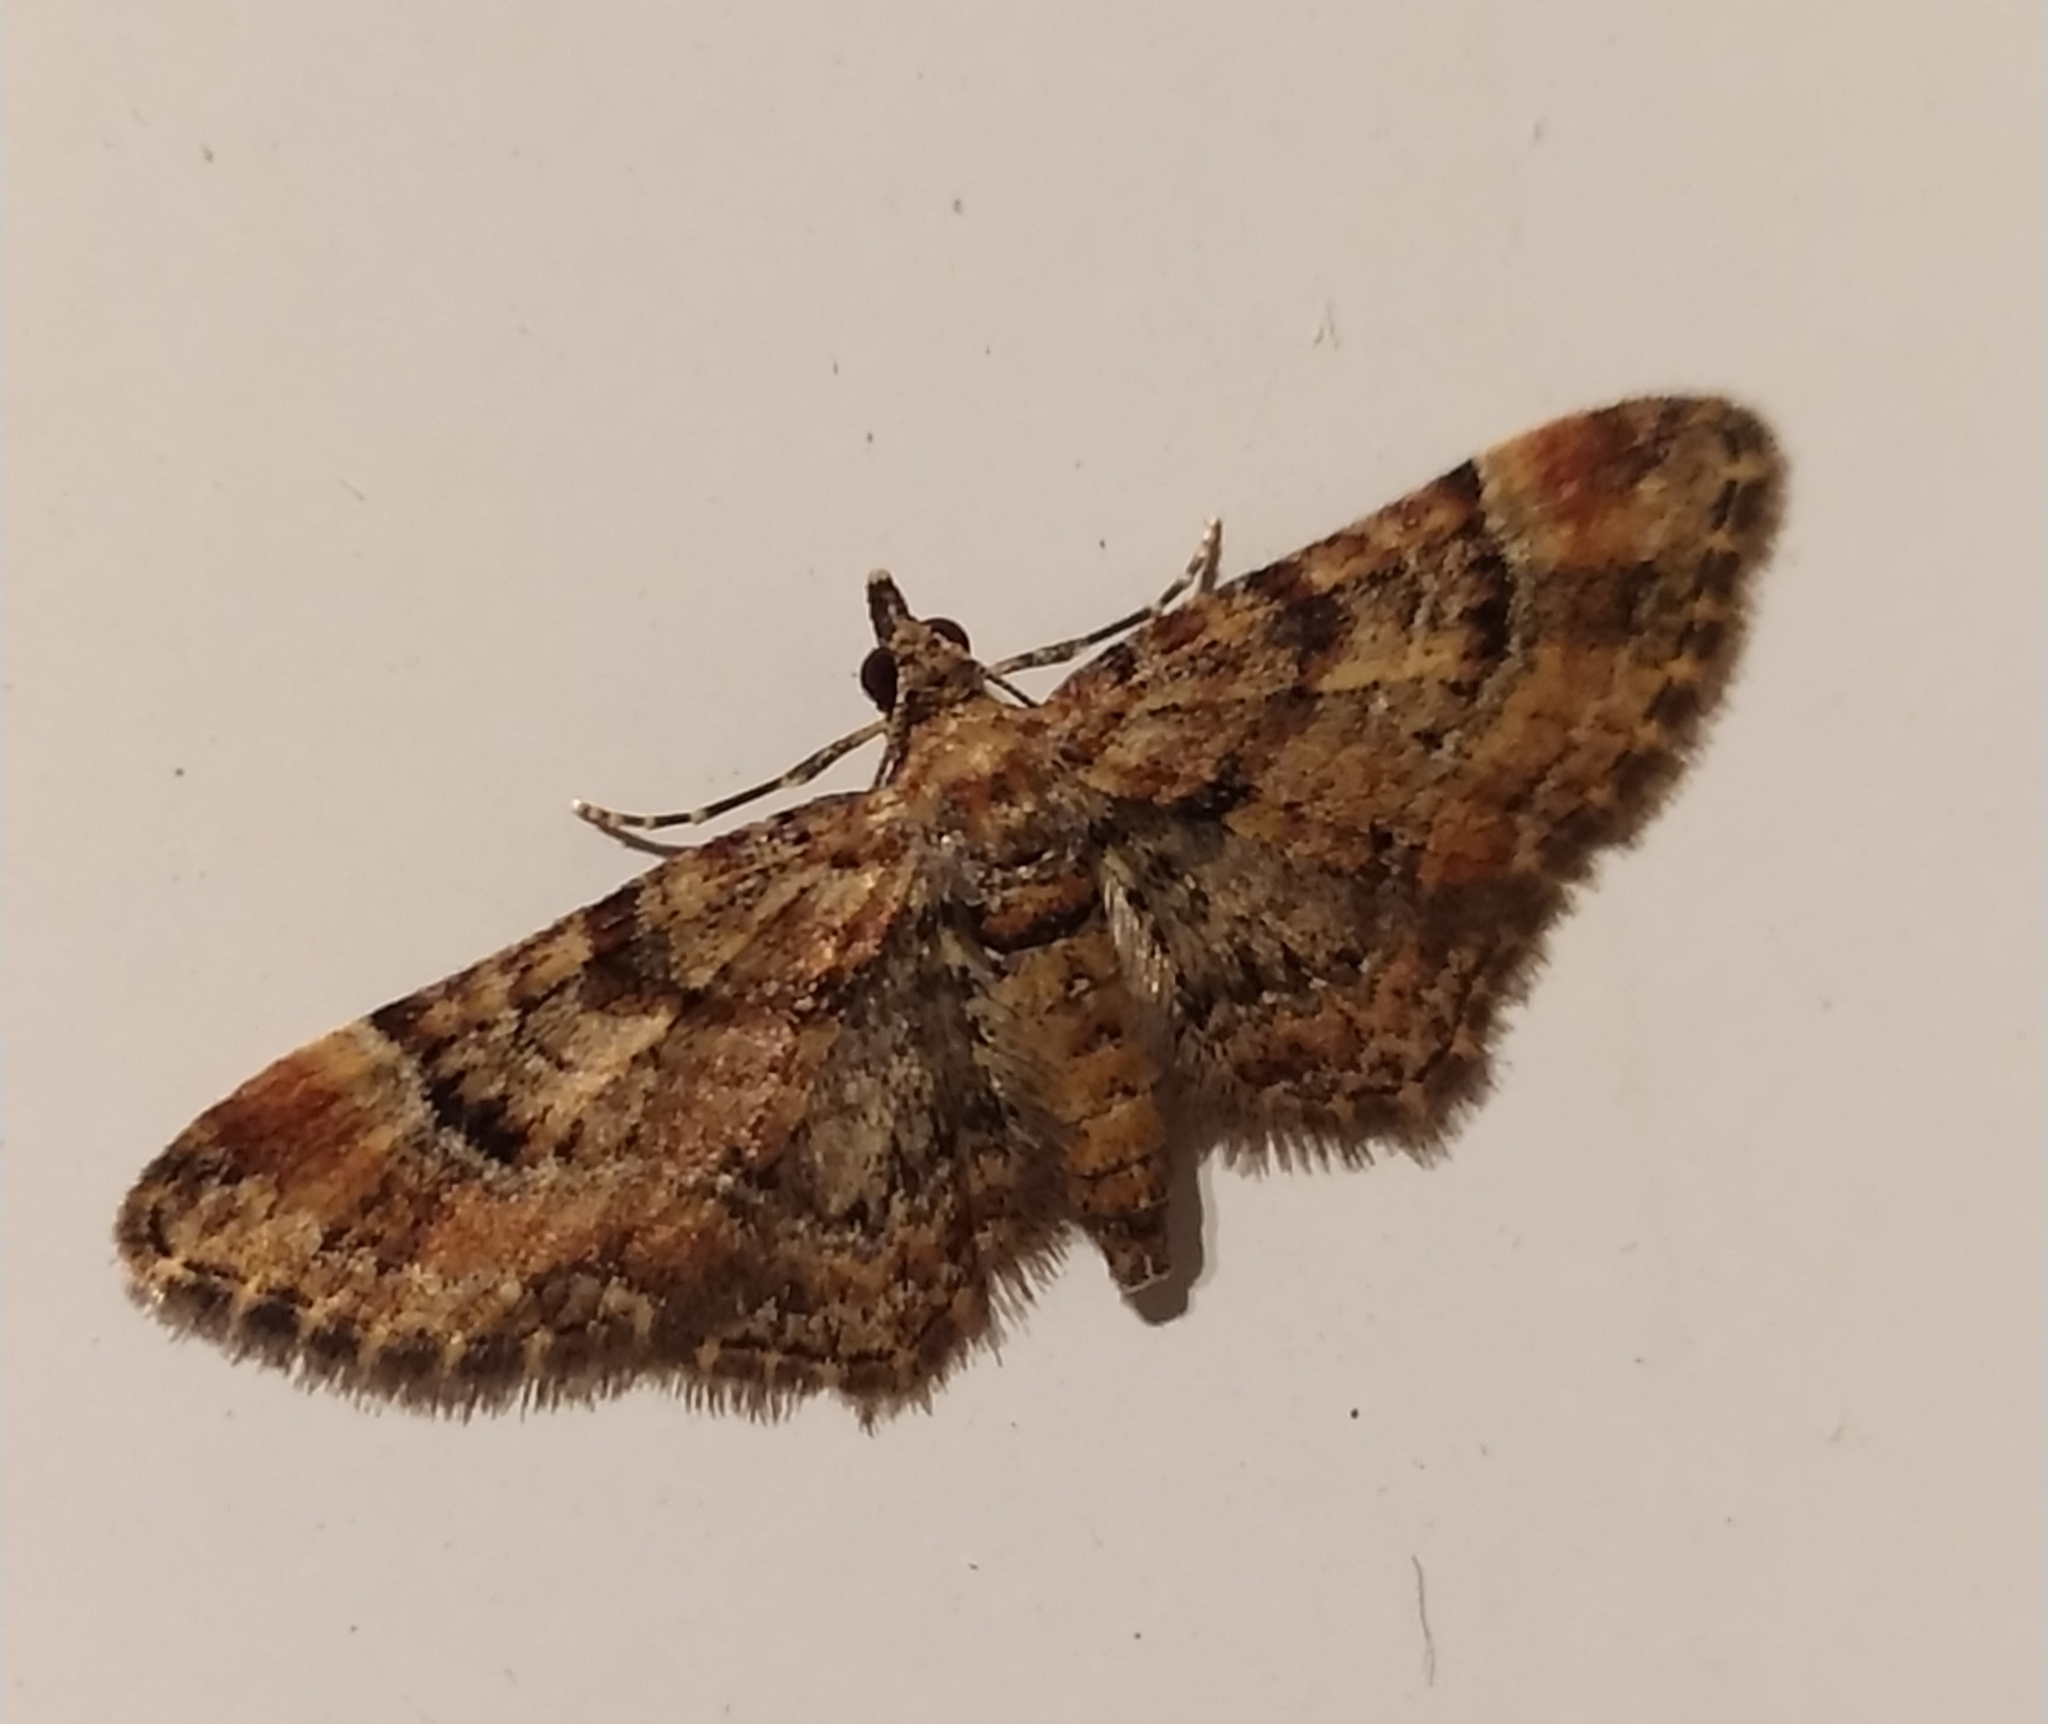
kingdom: Animalia
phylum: Arthropoda
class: Insecta
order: Lepidoptera
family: Geometridae
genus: Gymnoscelis
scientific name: Gymnoscelis rufifasciata
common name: Double-striped pug
